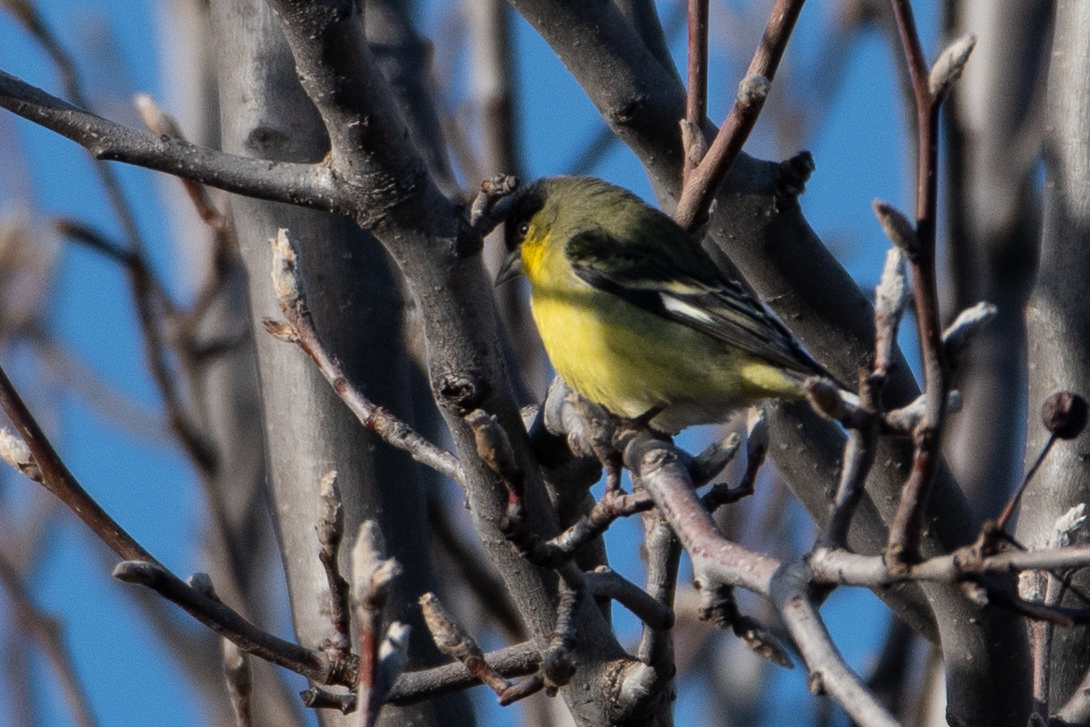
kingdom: Animalia
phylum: Chordata
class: Aves
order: Passeriformes
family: Fringillidae
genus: Spinus
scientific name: Spinus psaltria
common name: Lesser goldfinch
